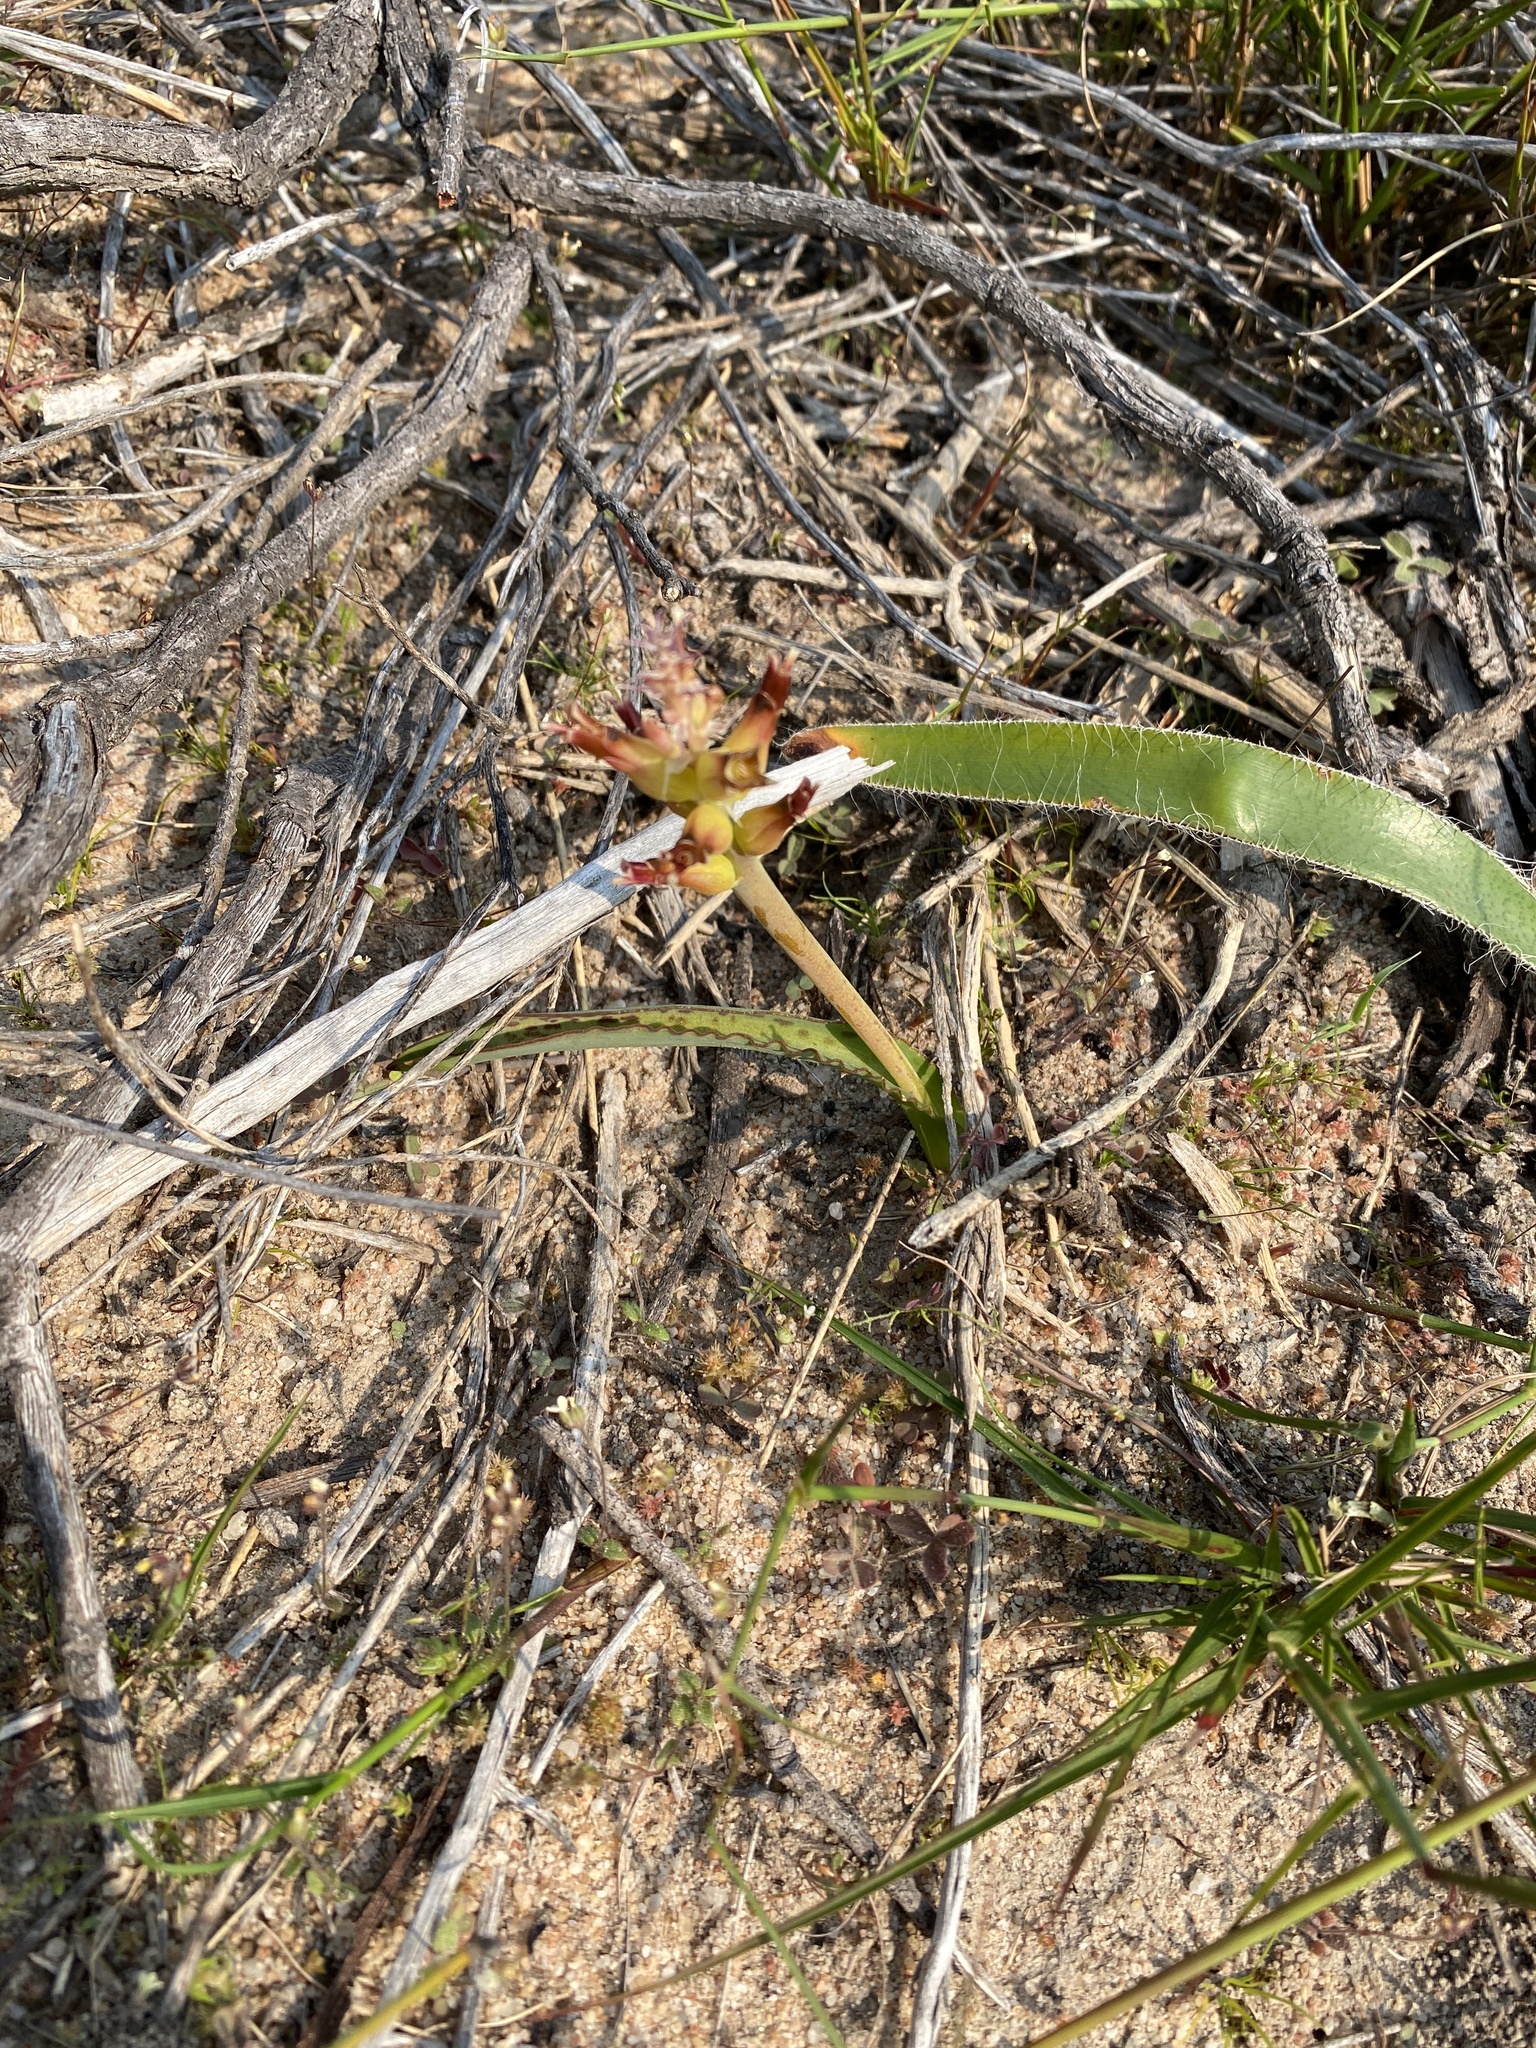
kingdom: Plantae
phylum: Tracheophyta
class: Liliopsida
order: Asparagales
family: Asparagaceae
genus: Lachenalia
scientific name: Lachenalia marginata
